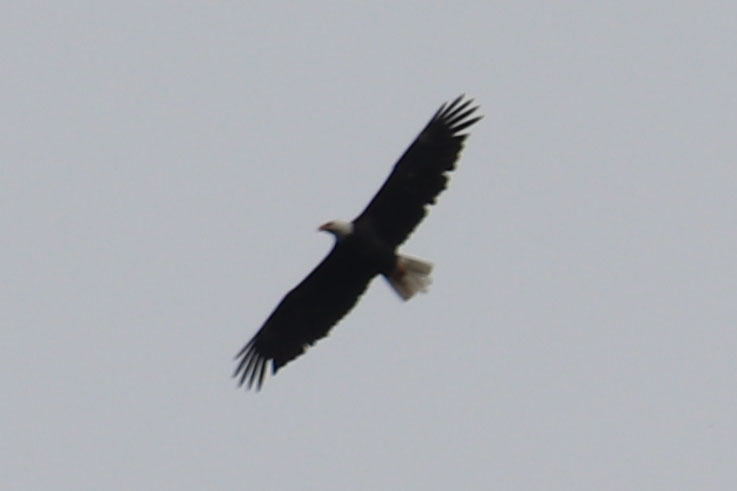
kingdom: Animalia
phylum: Chordata
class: Aves
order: Accipitriformes
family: Accipitridae
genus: Haliaeetus
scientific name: Haliaeetus leucocephalus
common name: Bald eagle
